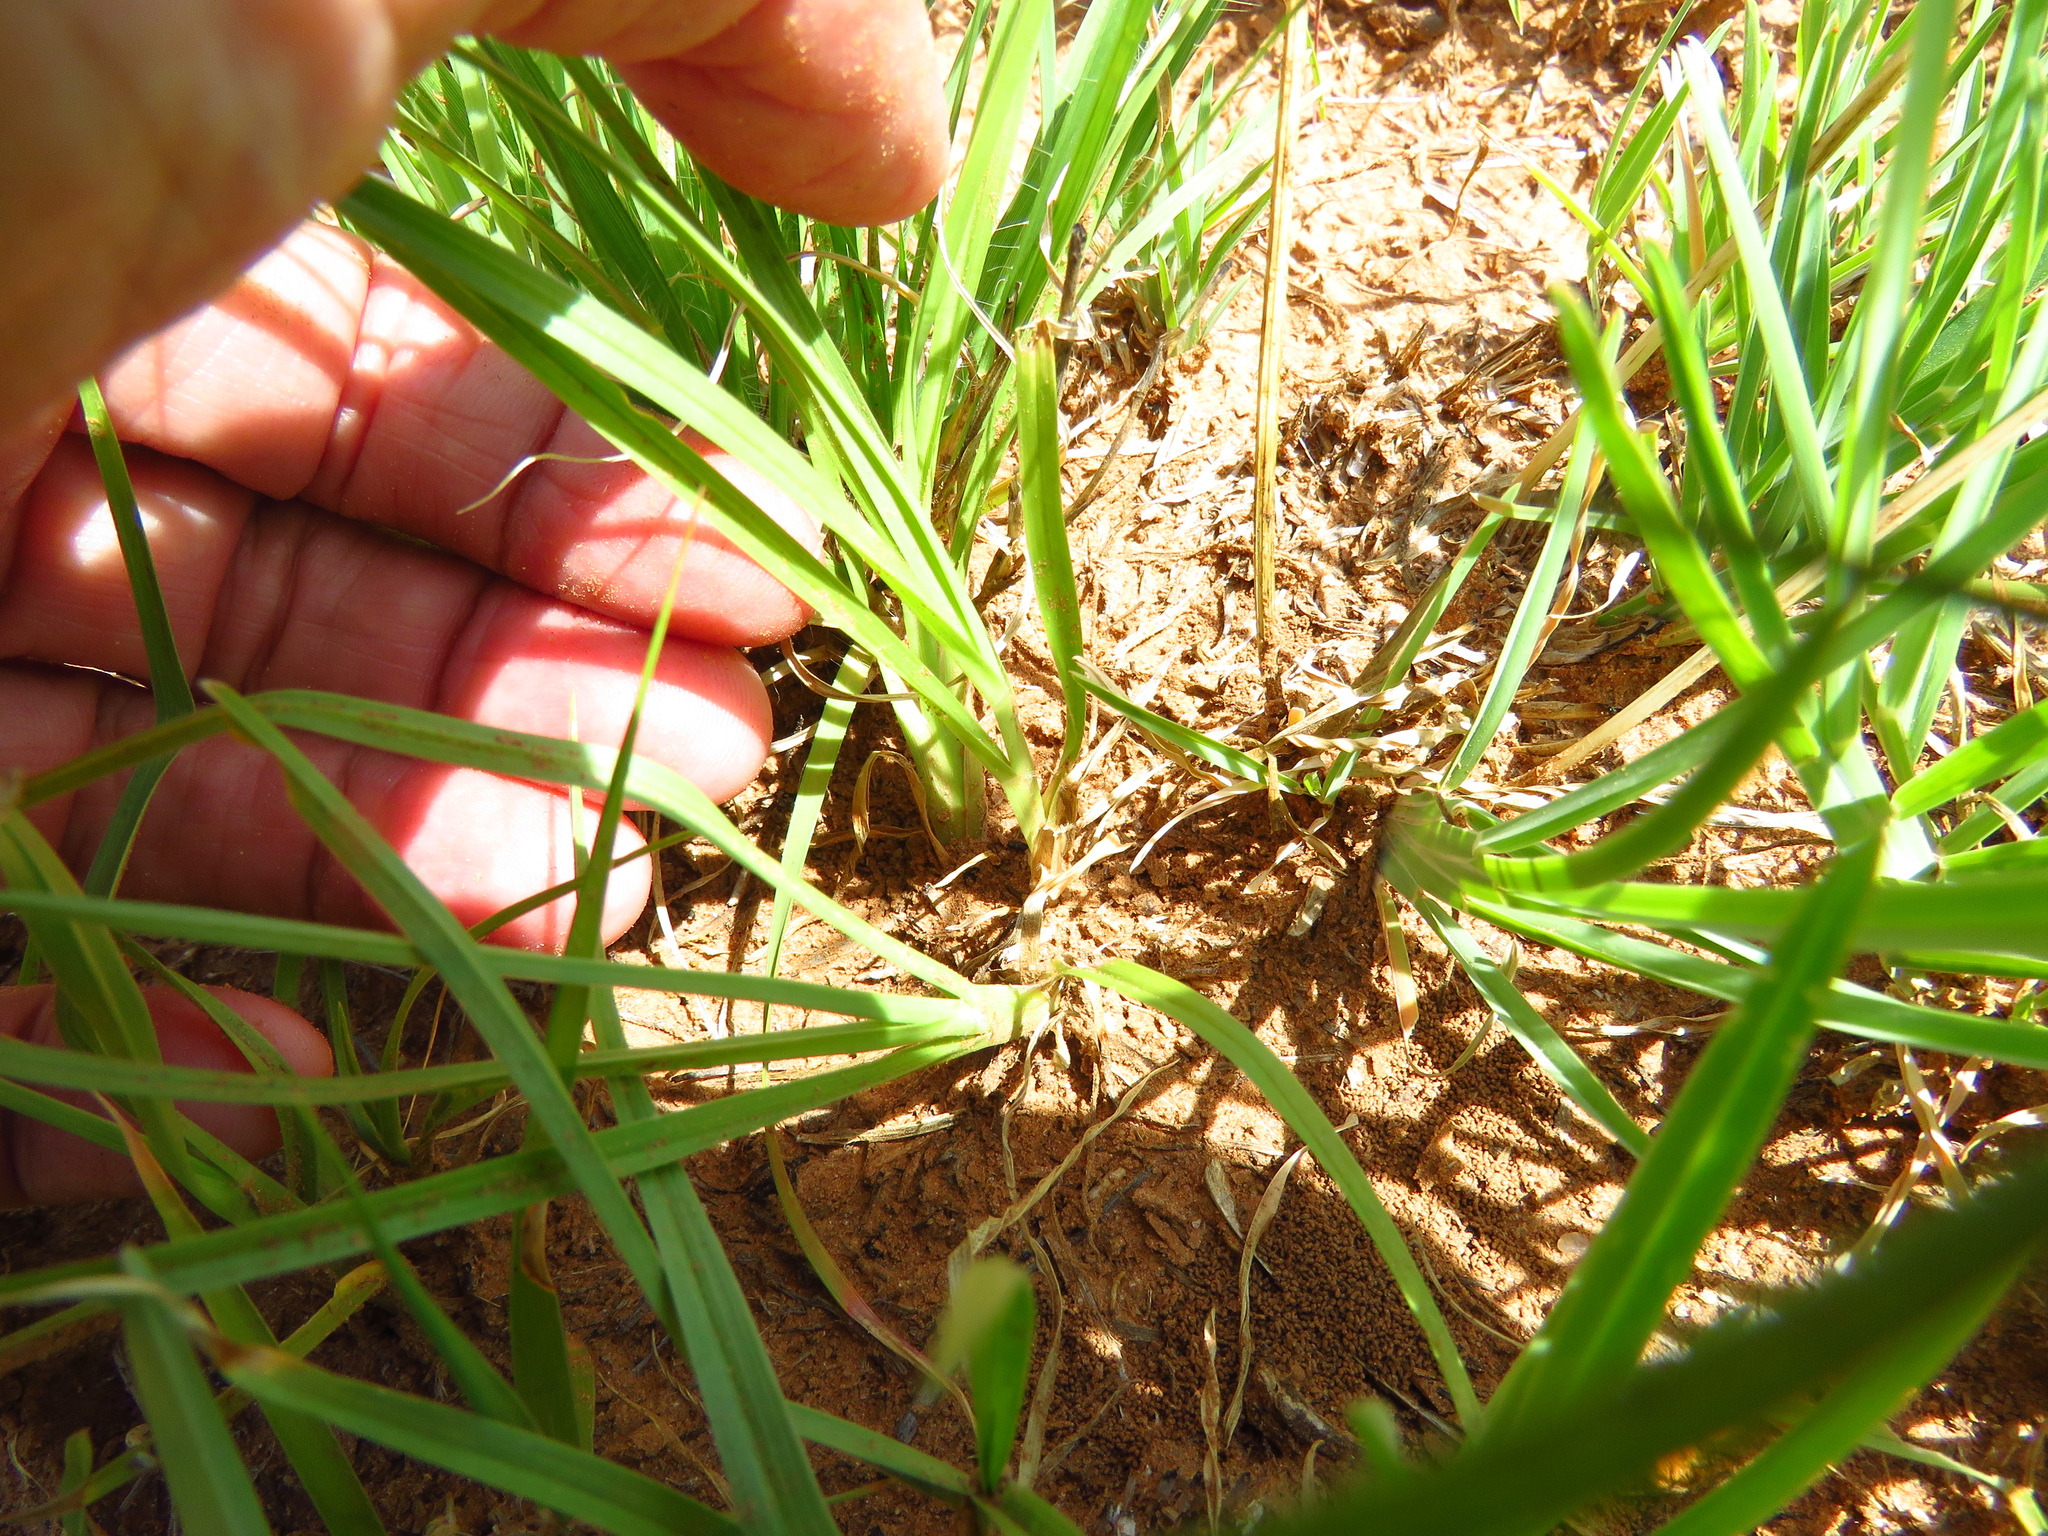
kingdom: Plantae
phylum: Tracheophyta
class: Liliopsida
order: Asparagales
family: Amaryllidaceae
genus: Allium
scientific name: Allium drummondii
